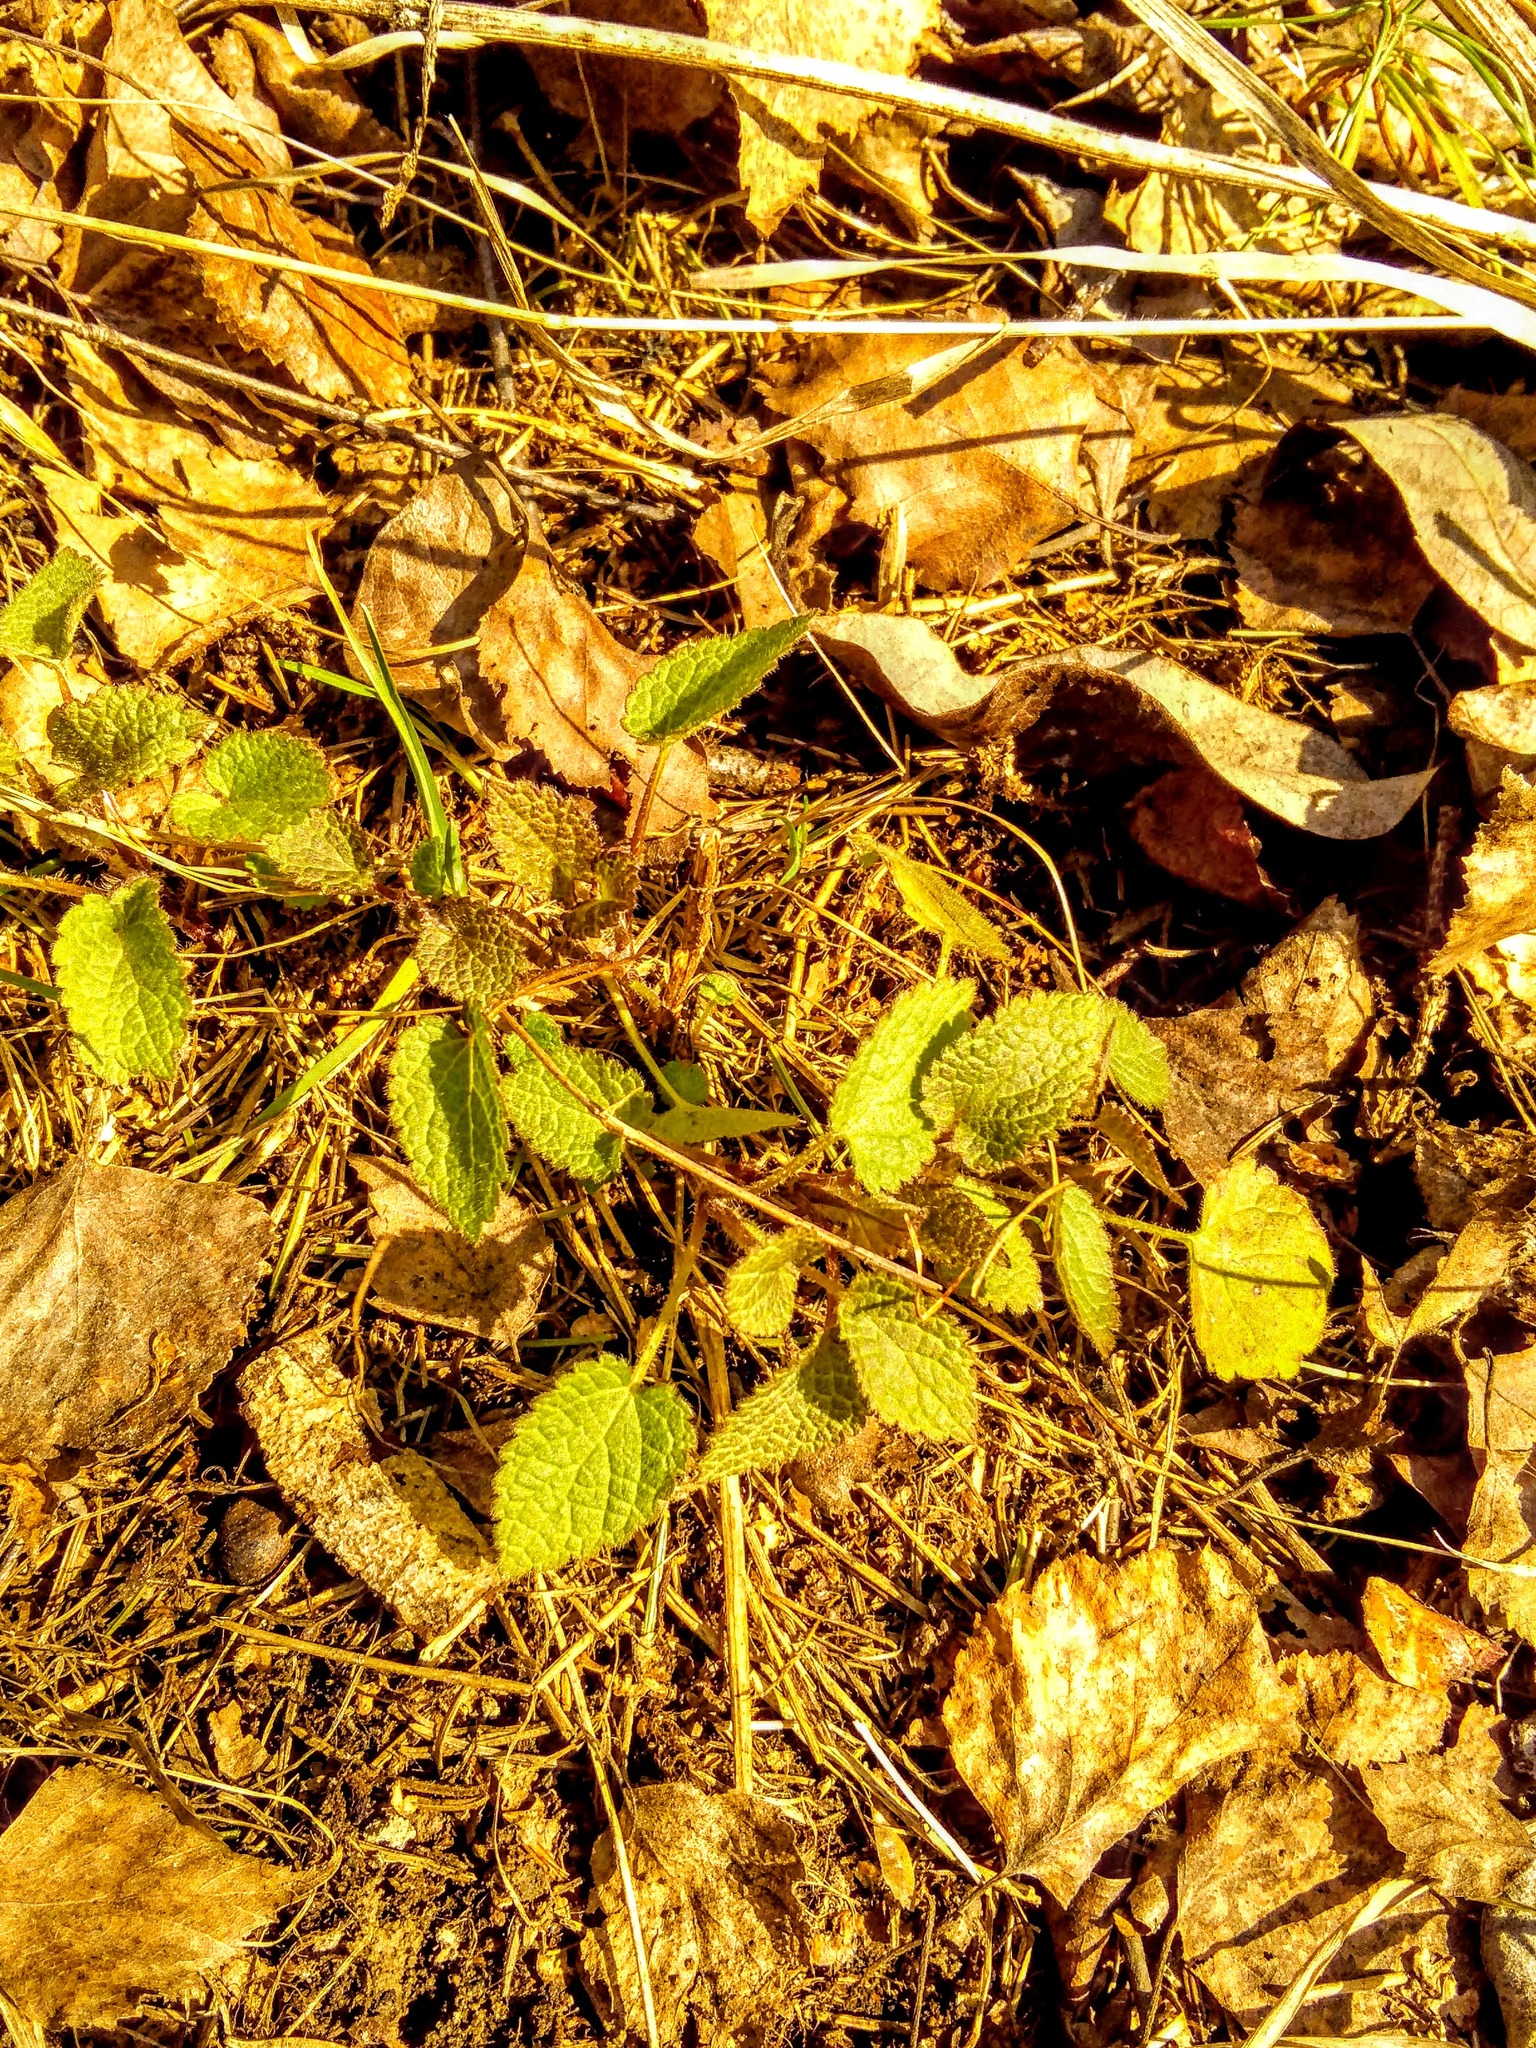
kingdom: Plantae
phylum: Tracheophyta
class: Magnoliopsida
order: Lamiales
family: Lamiaceae
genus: Lamium
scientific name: Lamium album
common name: White dead-nettle
